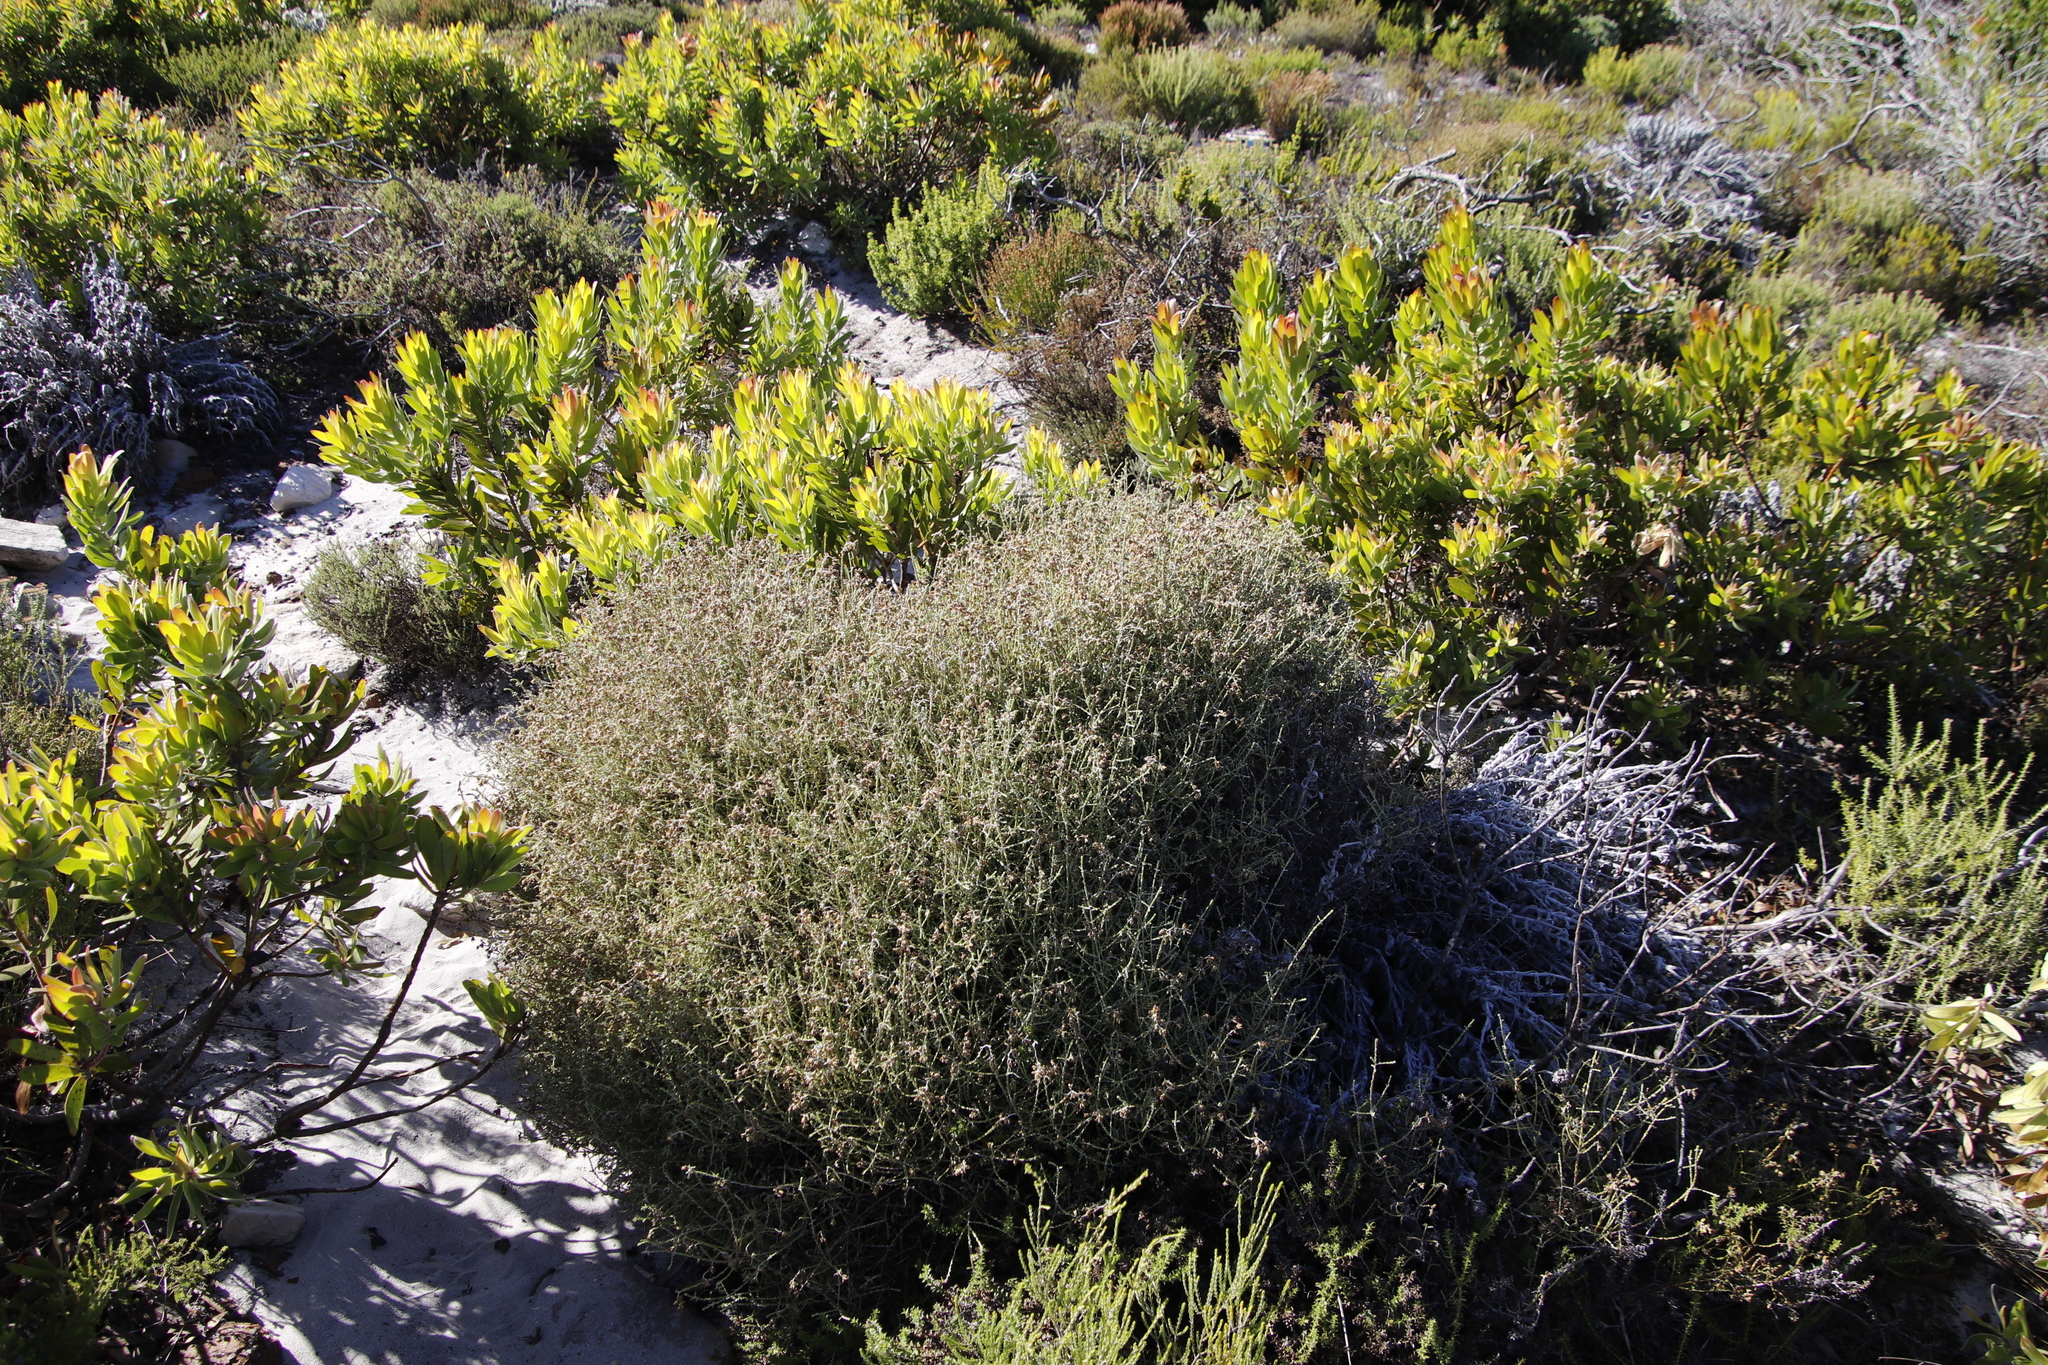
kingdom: Plantae
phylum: Tracheophyta
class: Magnoliopsida
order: Asterales
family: Asteraceae
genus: Myrovernix
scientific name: Myrovernix scaber
